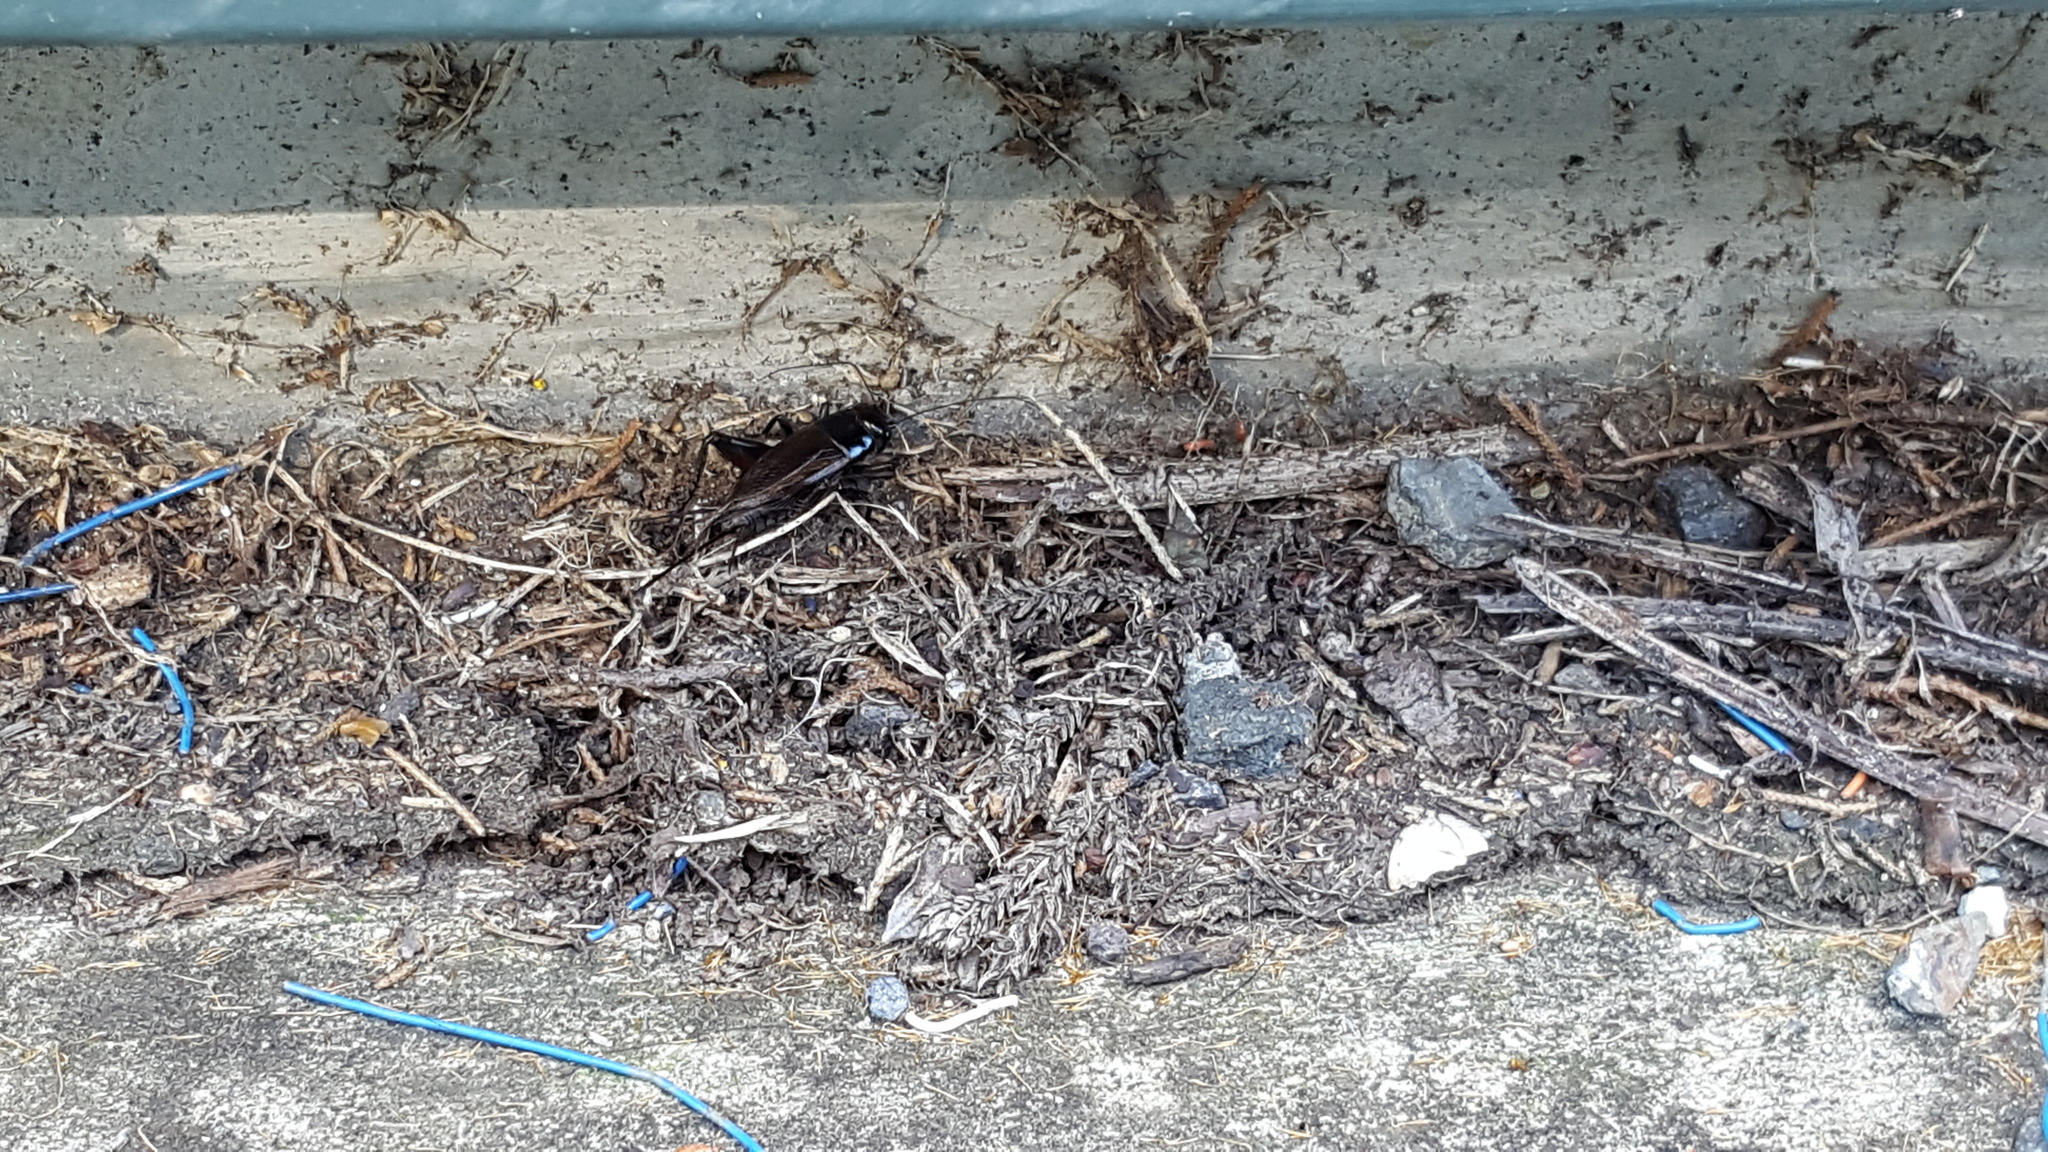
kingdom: Animalia
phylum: Arthropoda
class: Insecta
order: Orthoptera
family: Gryllidae
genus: Teleogryllus
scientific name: Teleogryllus commodus
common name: Black field cricket
